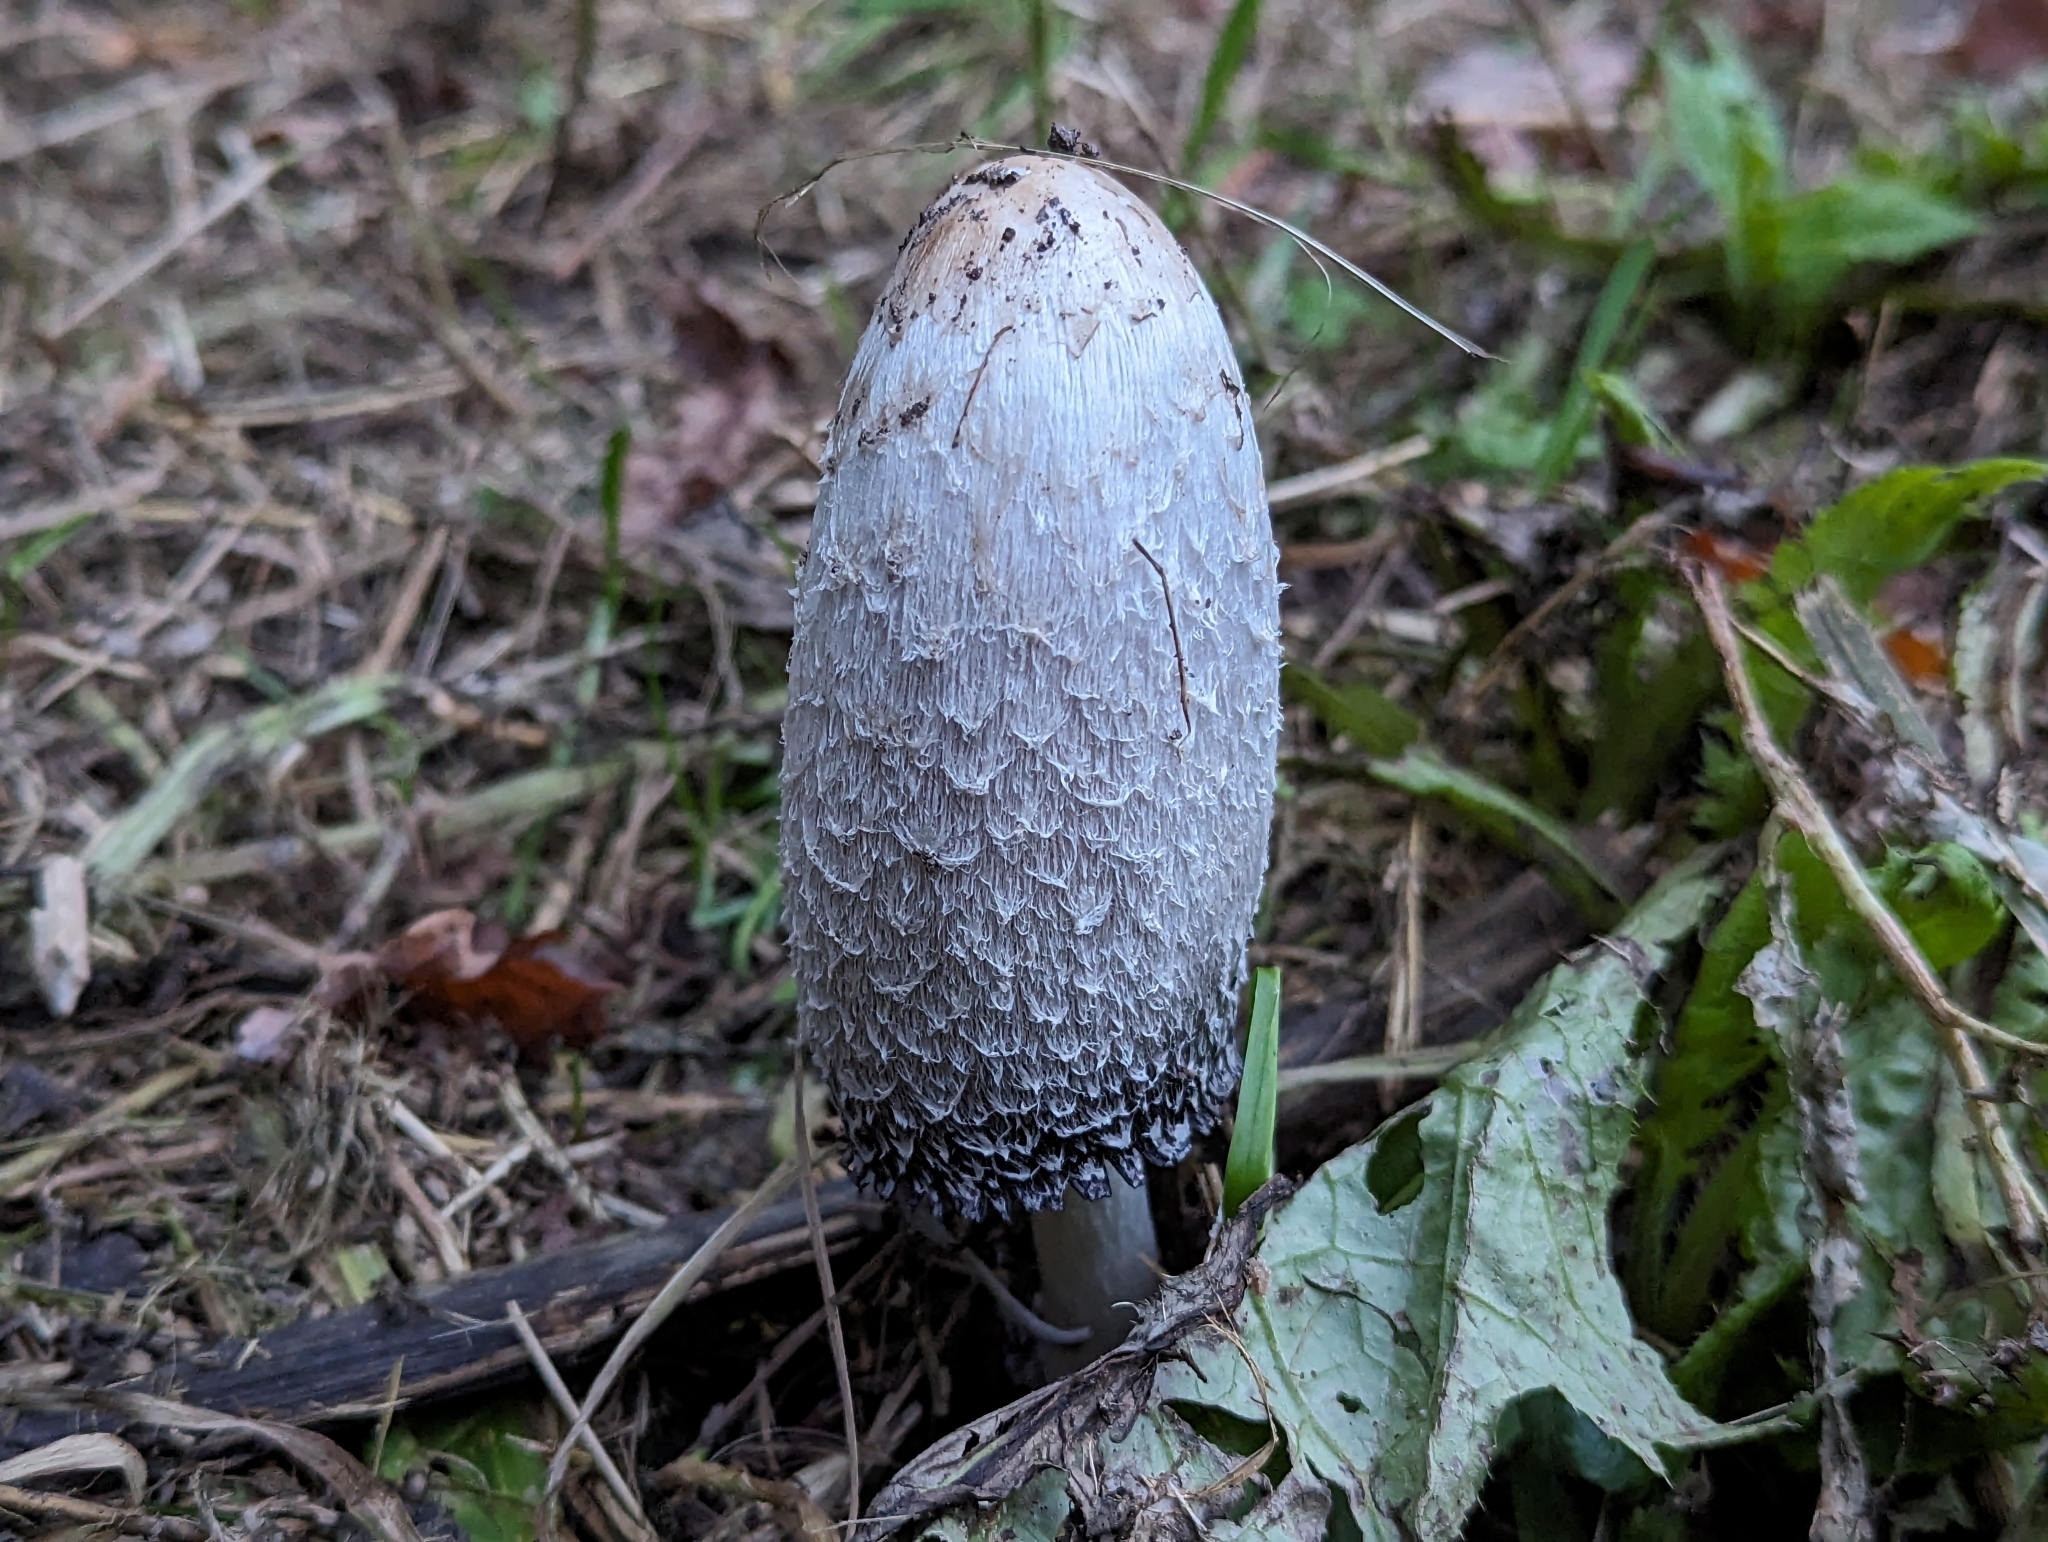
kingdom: Fungi
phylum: Basidiomycota
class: Agaricomycetes
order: Agaricales
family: Agaricaceae
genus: Coprinus
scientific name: Coprinus comatus
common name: Lawyer's wig
